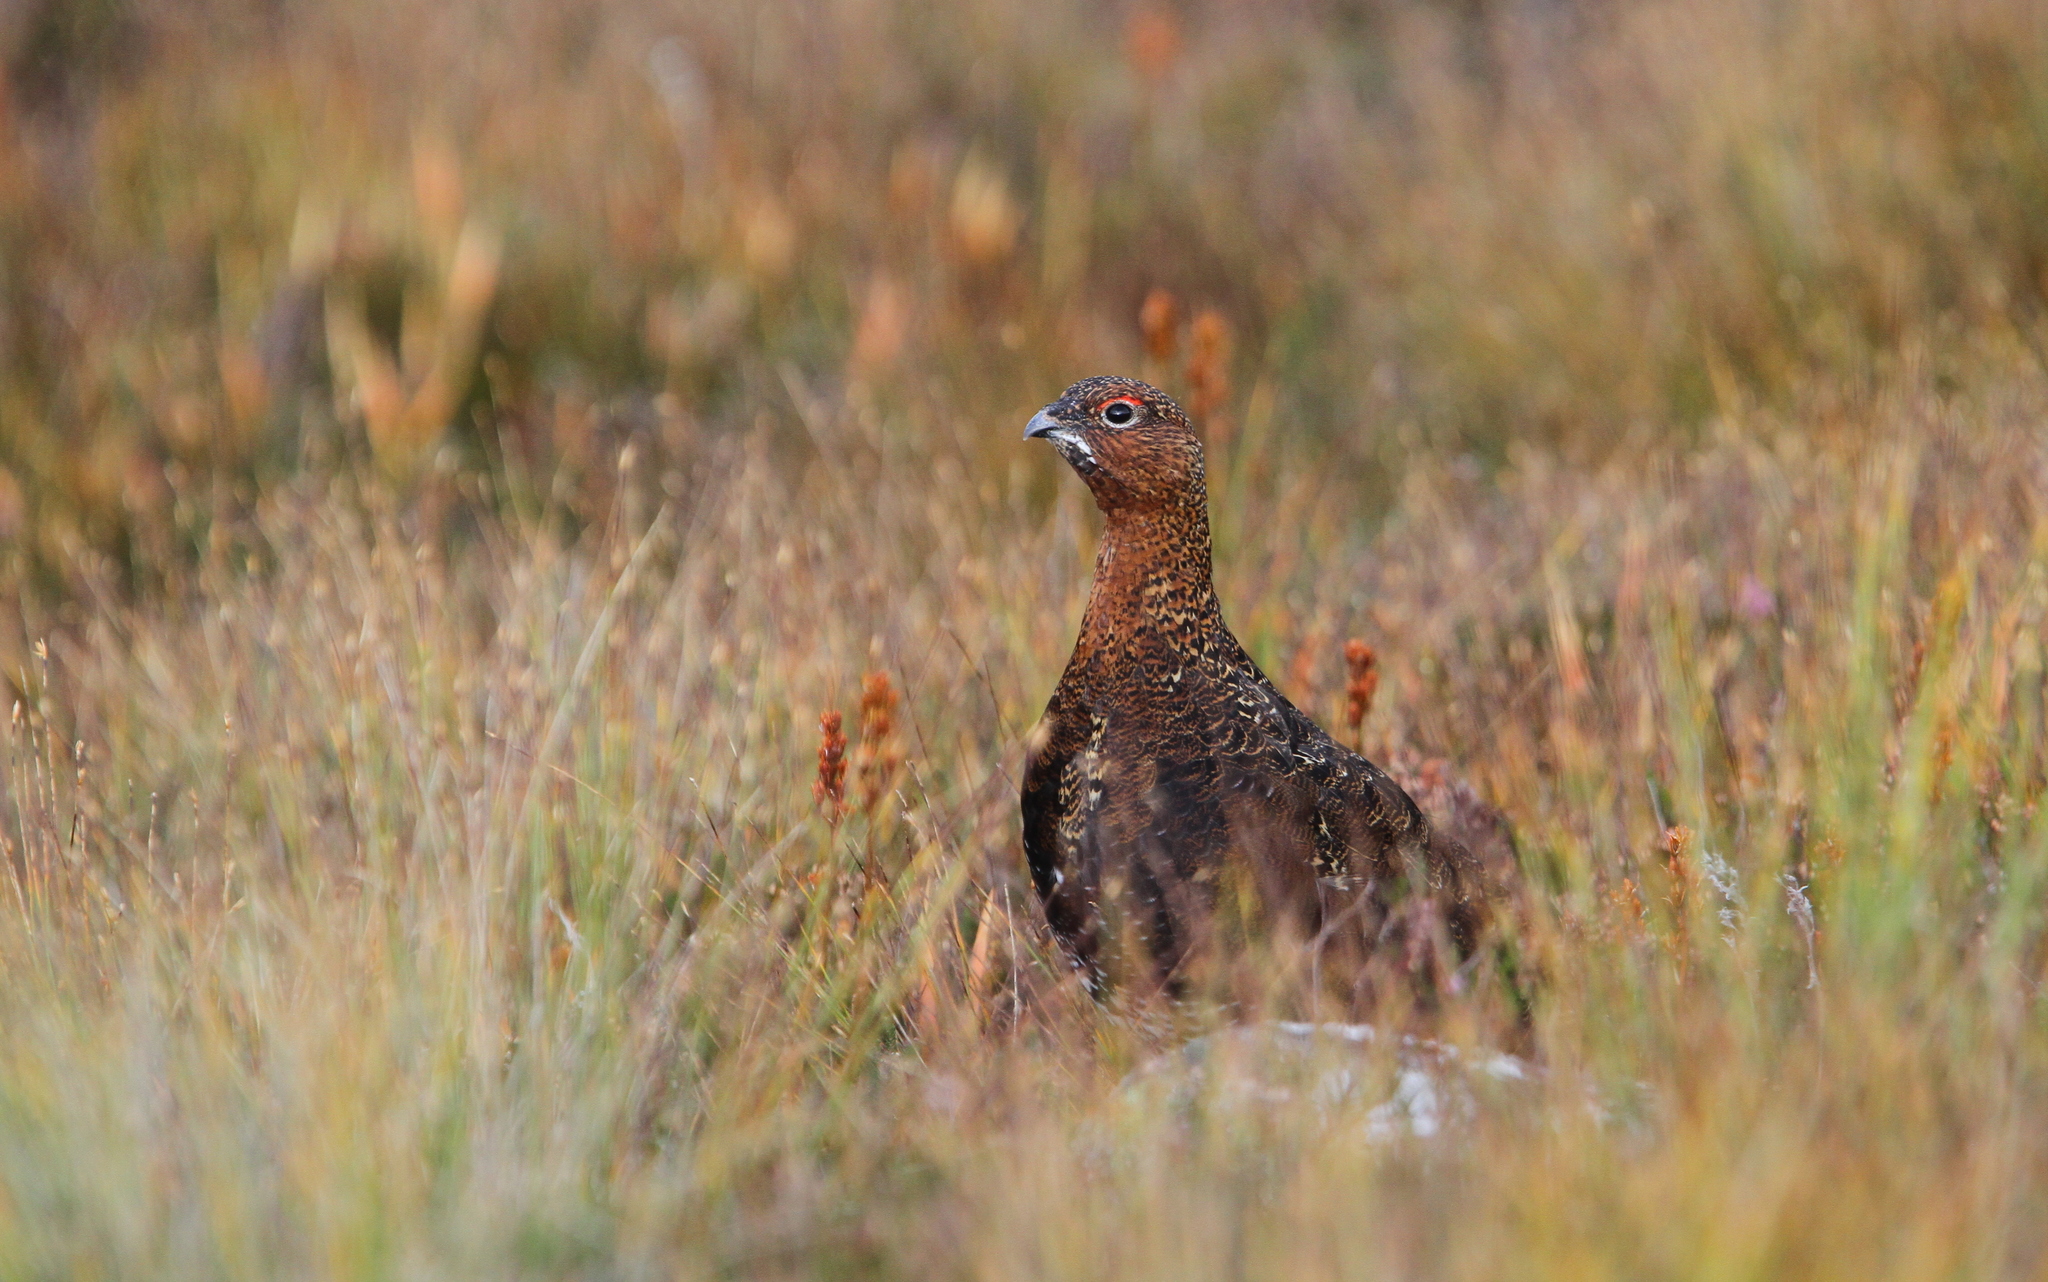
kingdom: Animalia
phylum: Chordata
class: Aves
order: Galliformes
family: Phasianidae
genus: Lagopus
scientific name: Lagopus lagopus
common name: Willow ptarmigan
